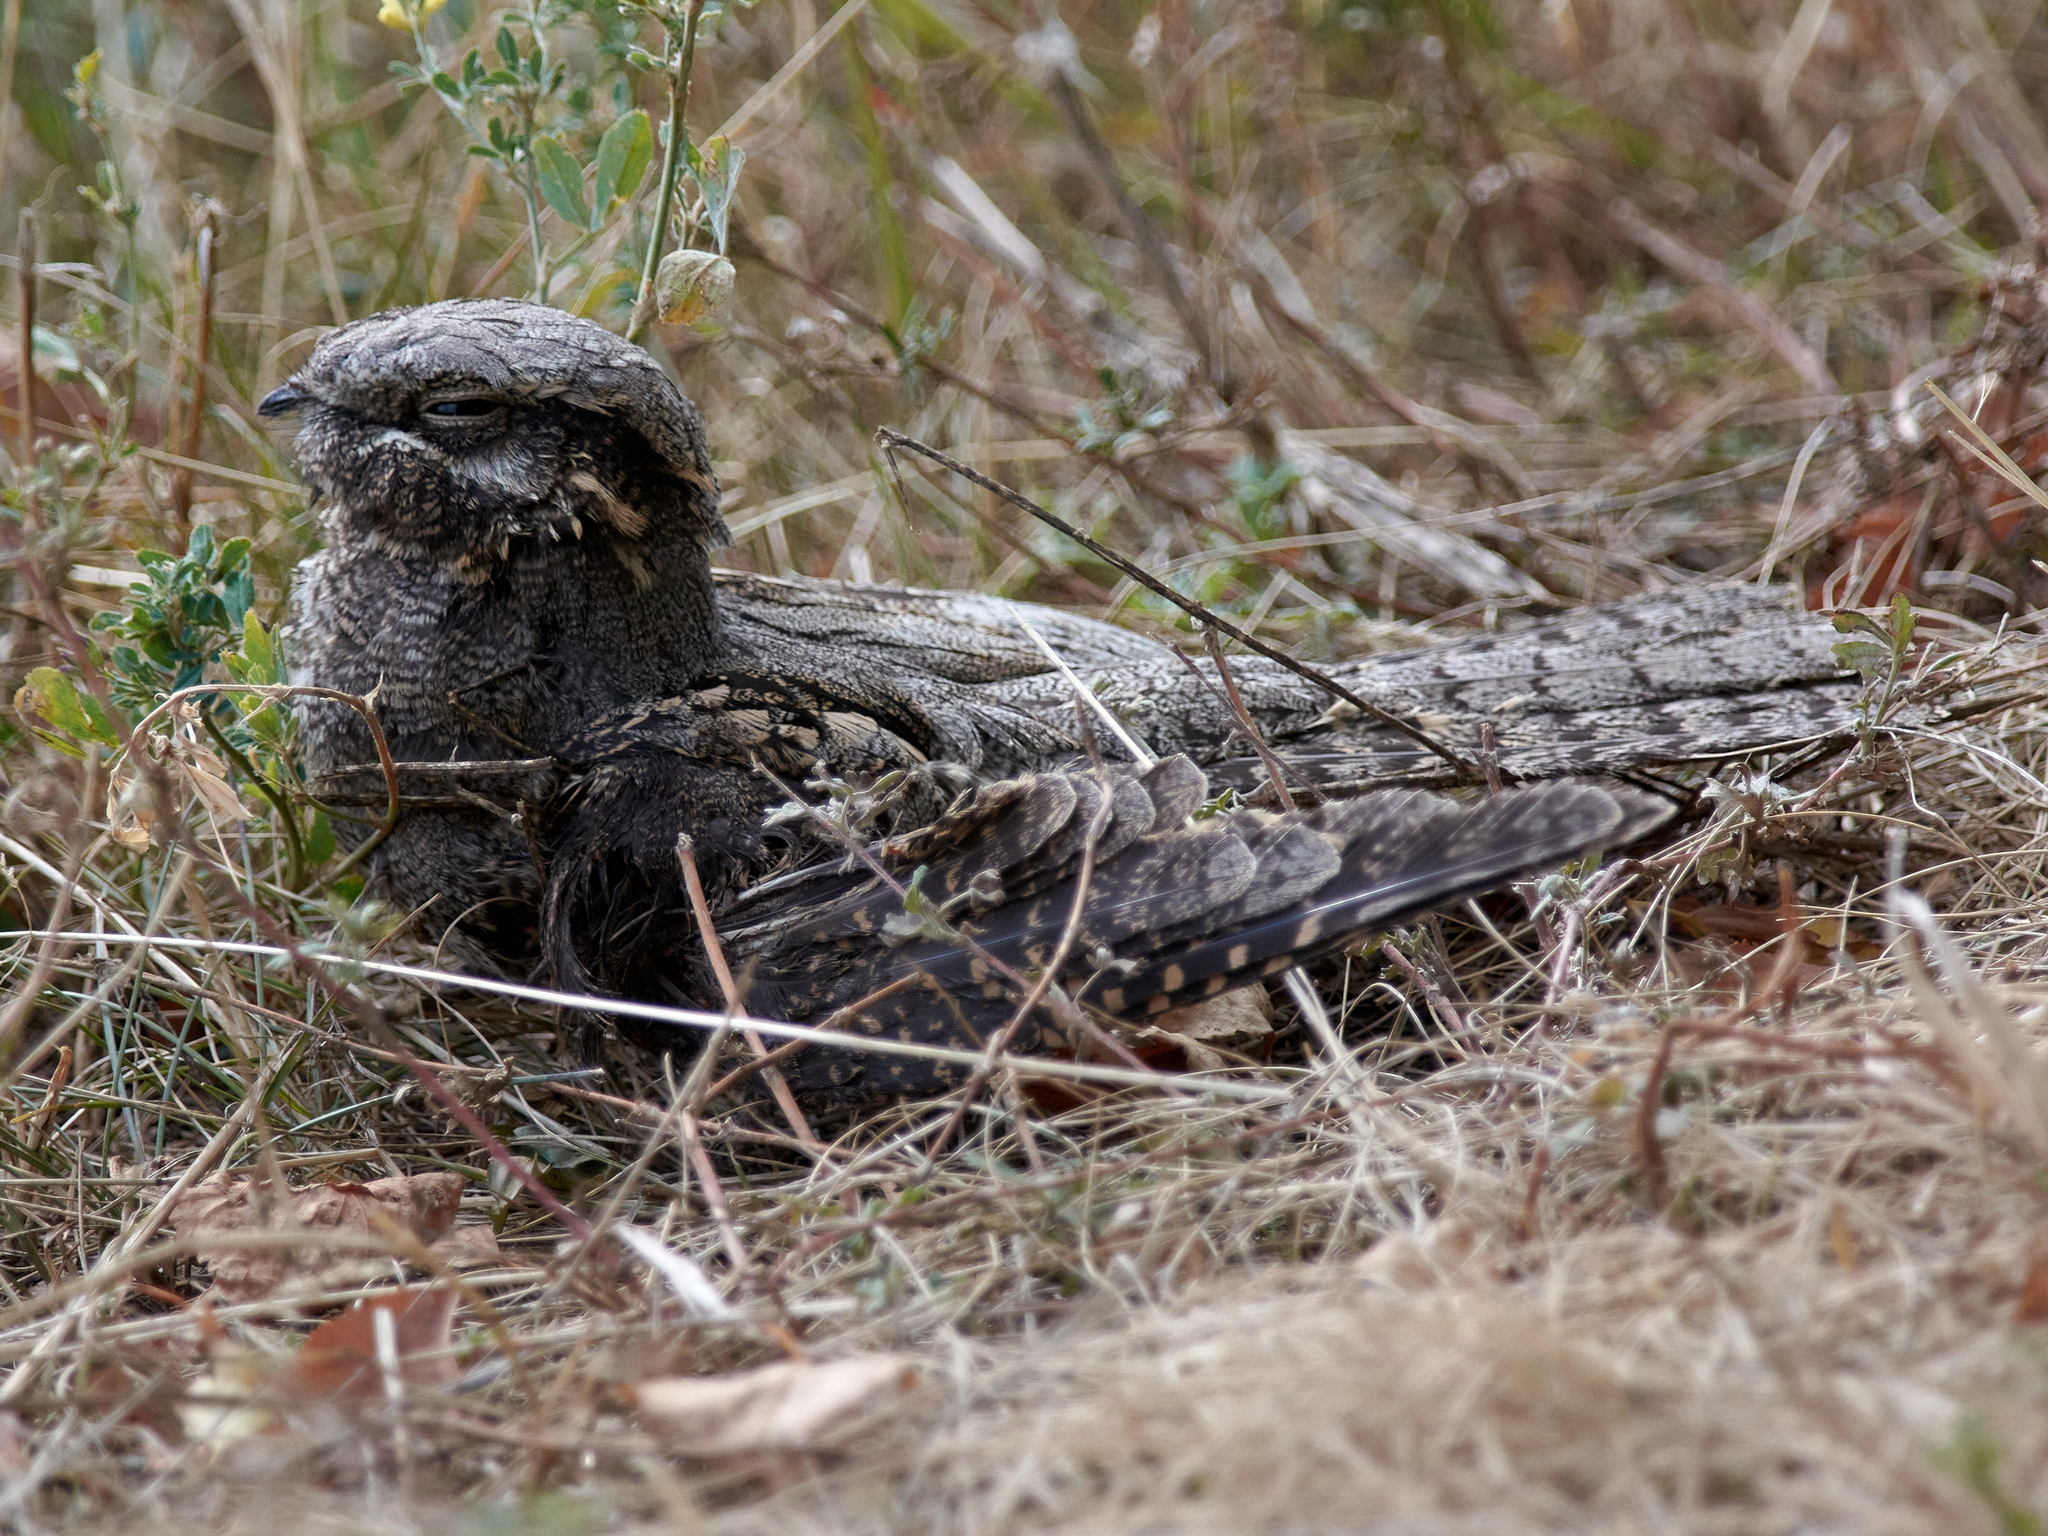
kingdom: Animalia
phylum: Chordata
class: Aves
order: Caprimulgiformes
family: Caprimulgidae
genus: Caprimulgus
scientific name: Caprimulgus europaeus
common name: European nightjar
